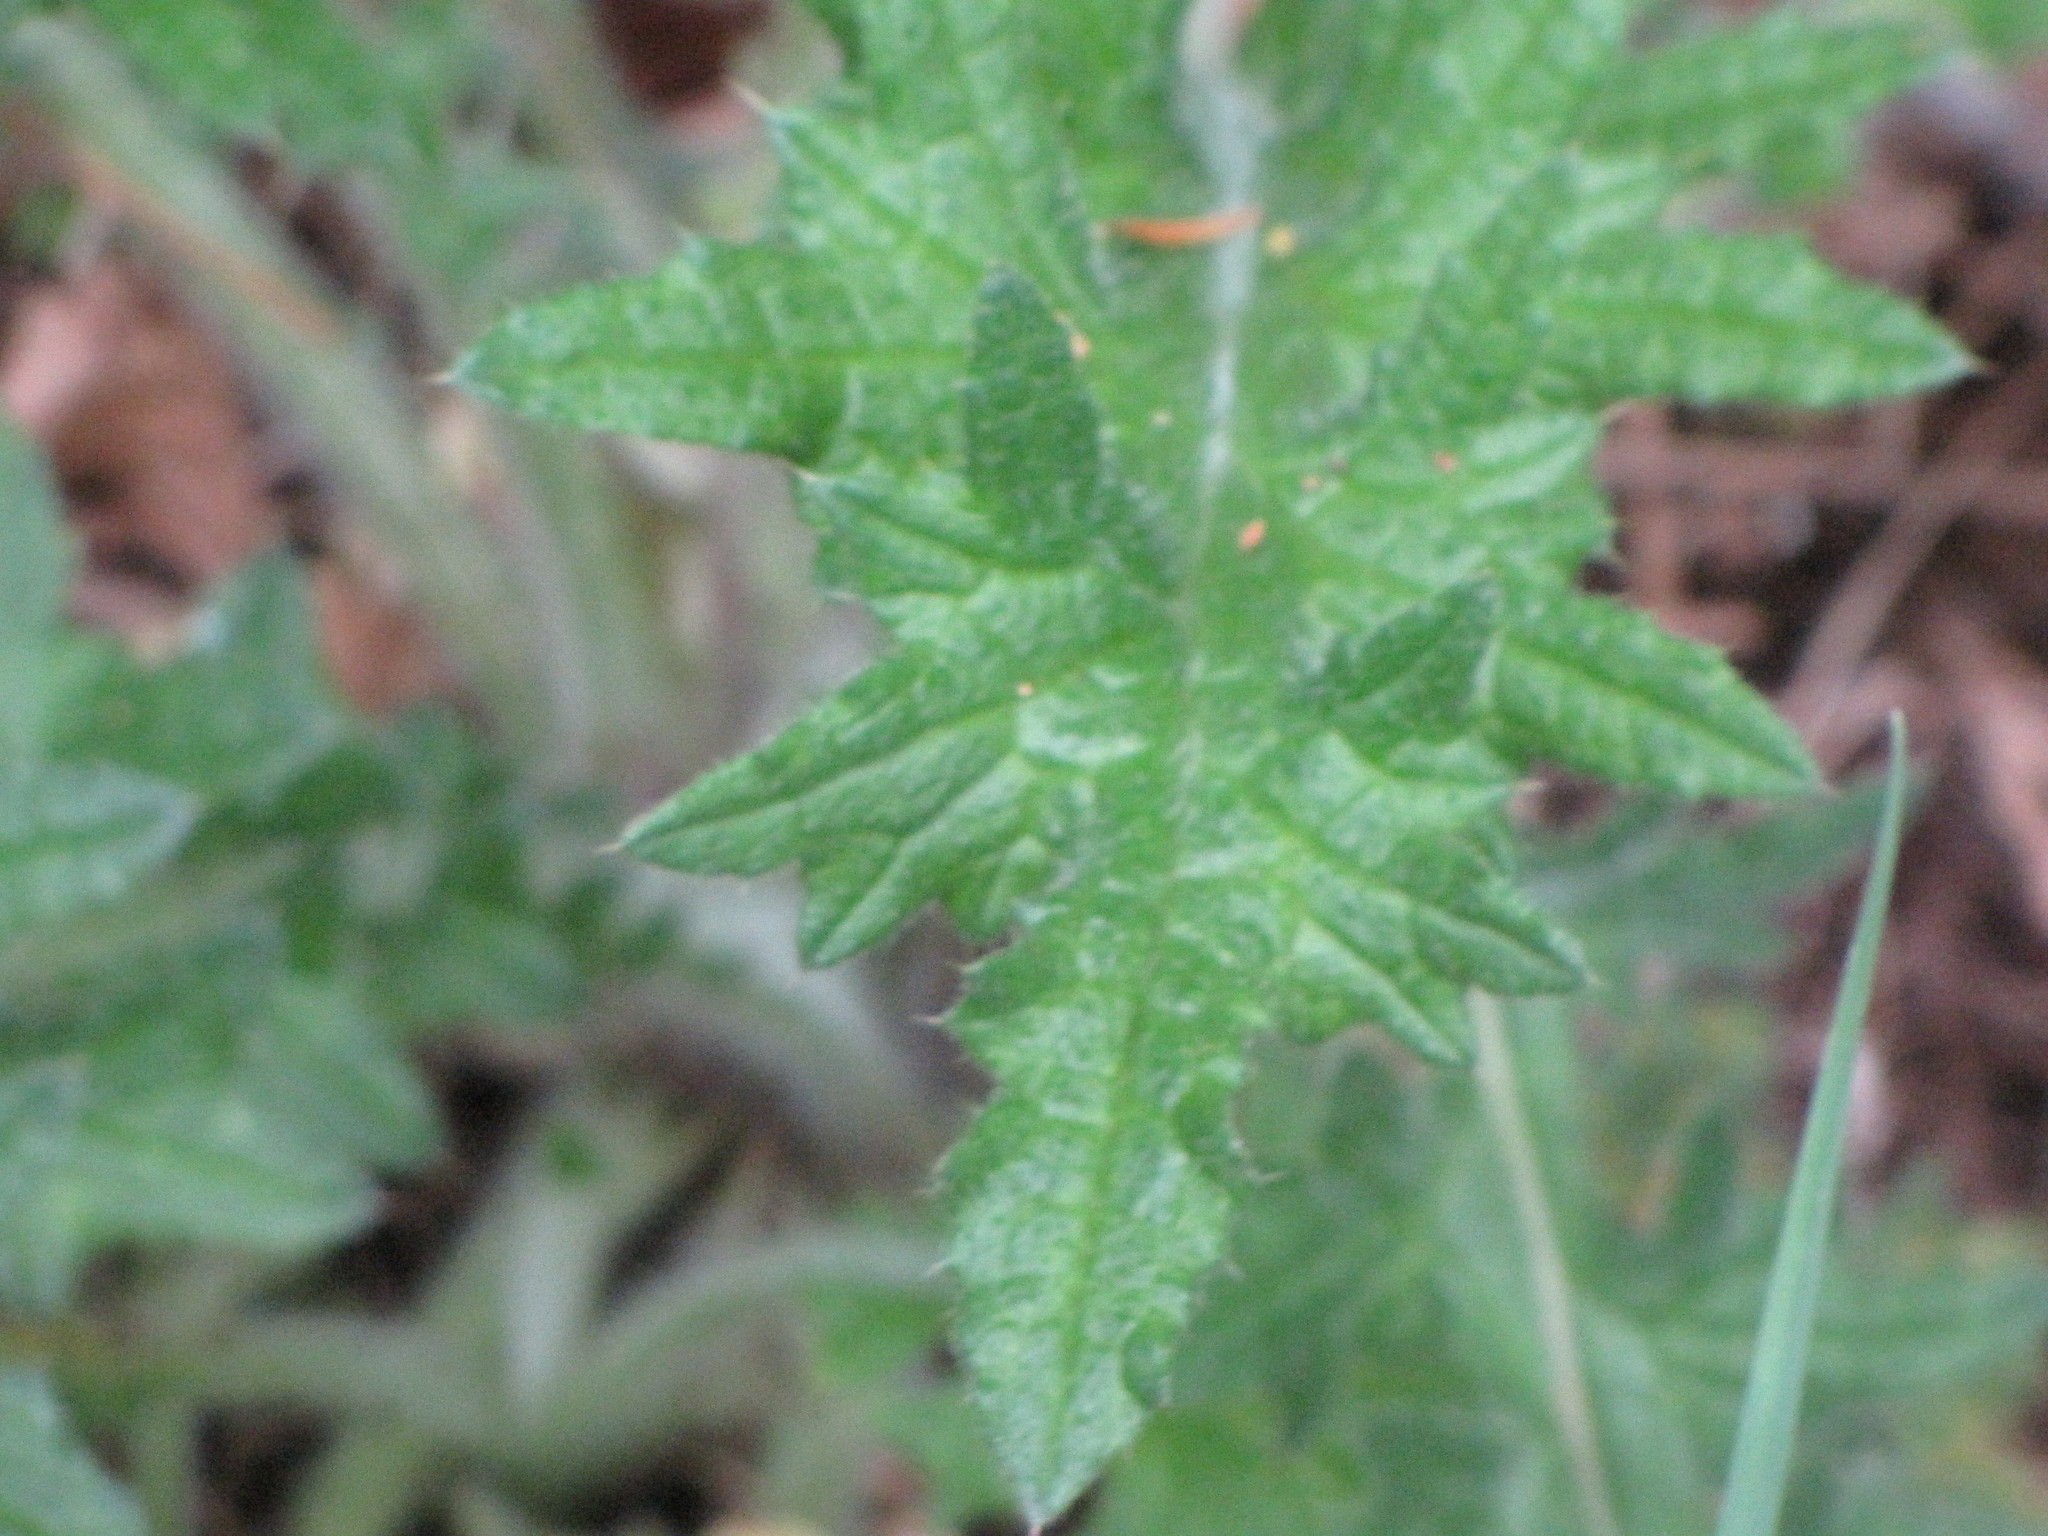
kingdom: Plantae
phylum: Tracheophyta
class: Magnoliopsida
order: Asterales
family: Asteraceae
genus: Cirsium
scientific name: Cirsium vulgare
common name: Bull thistle
